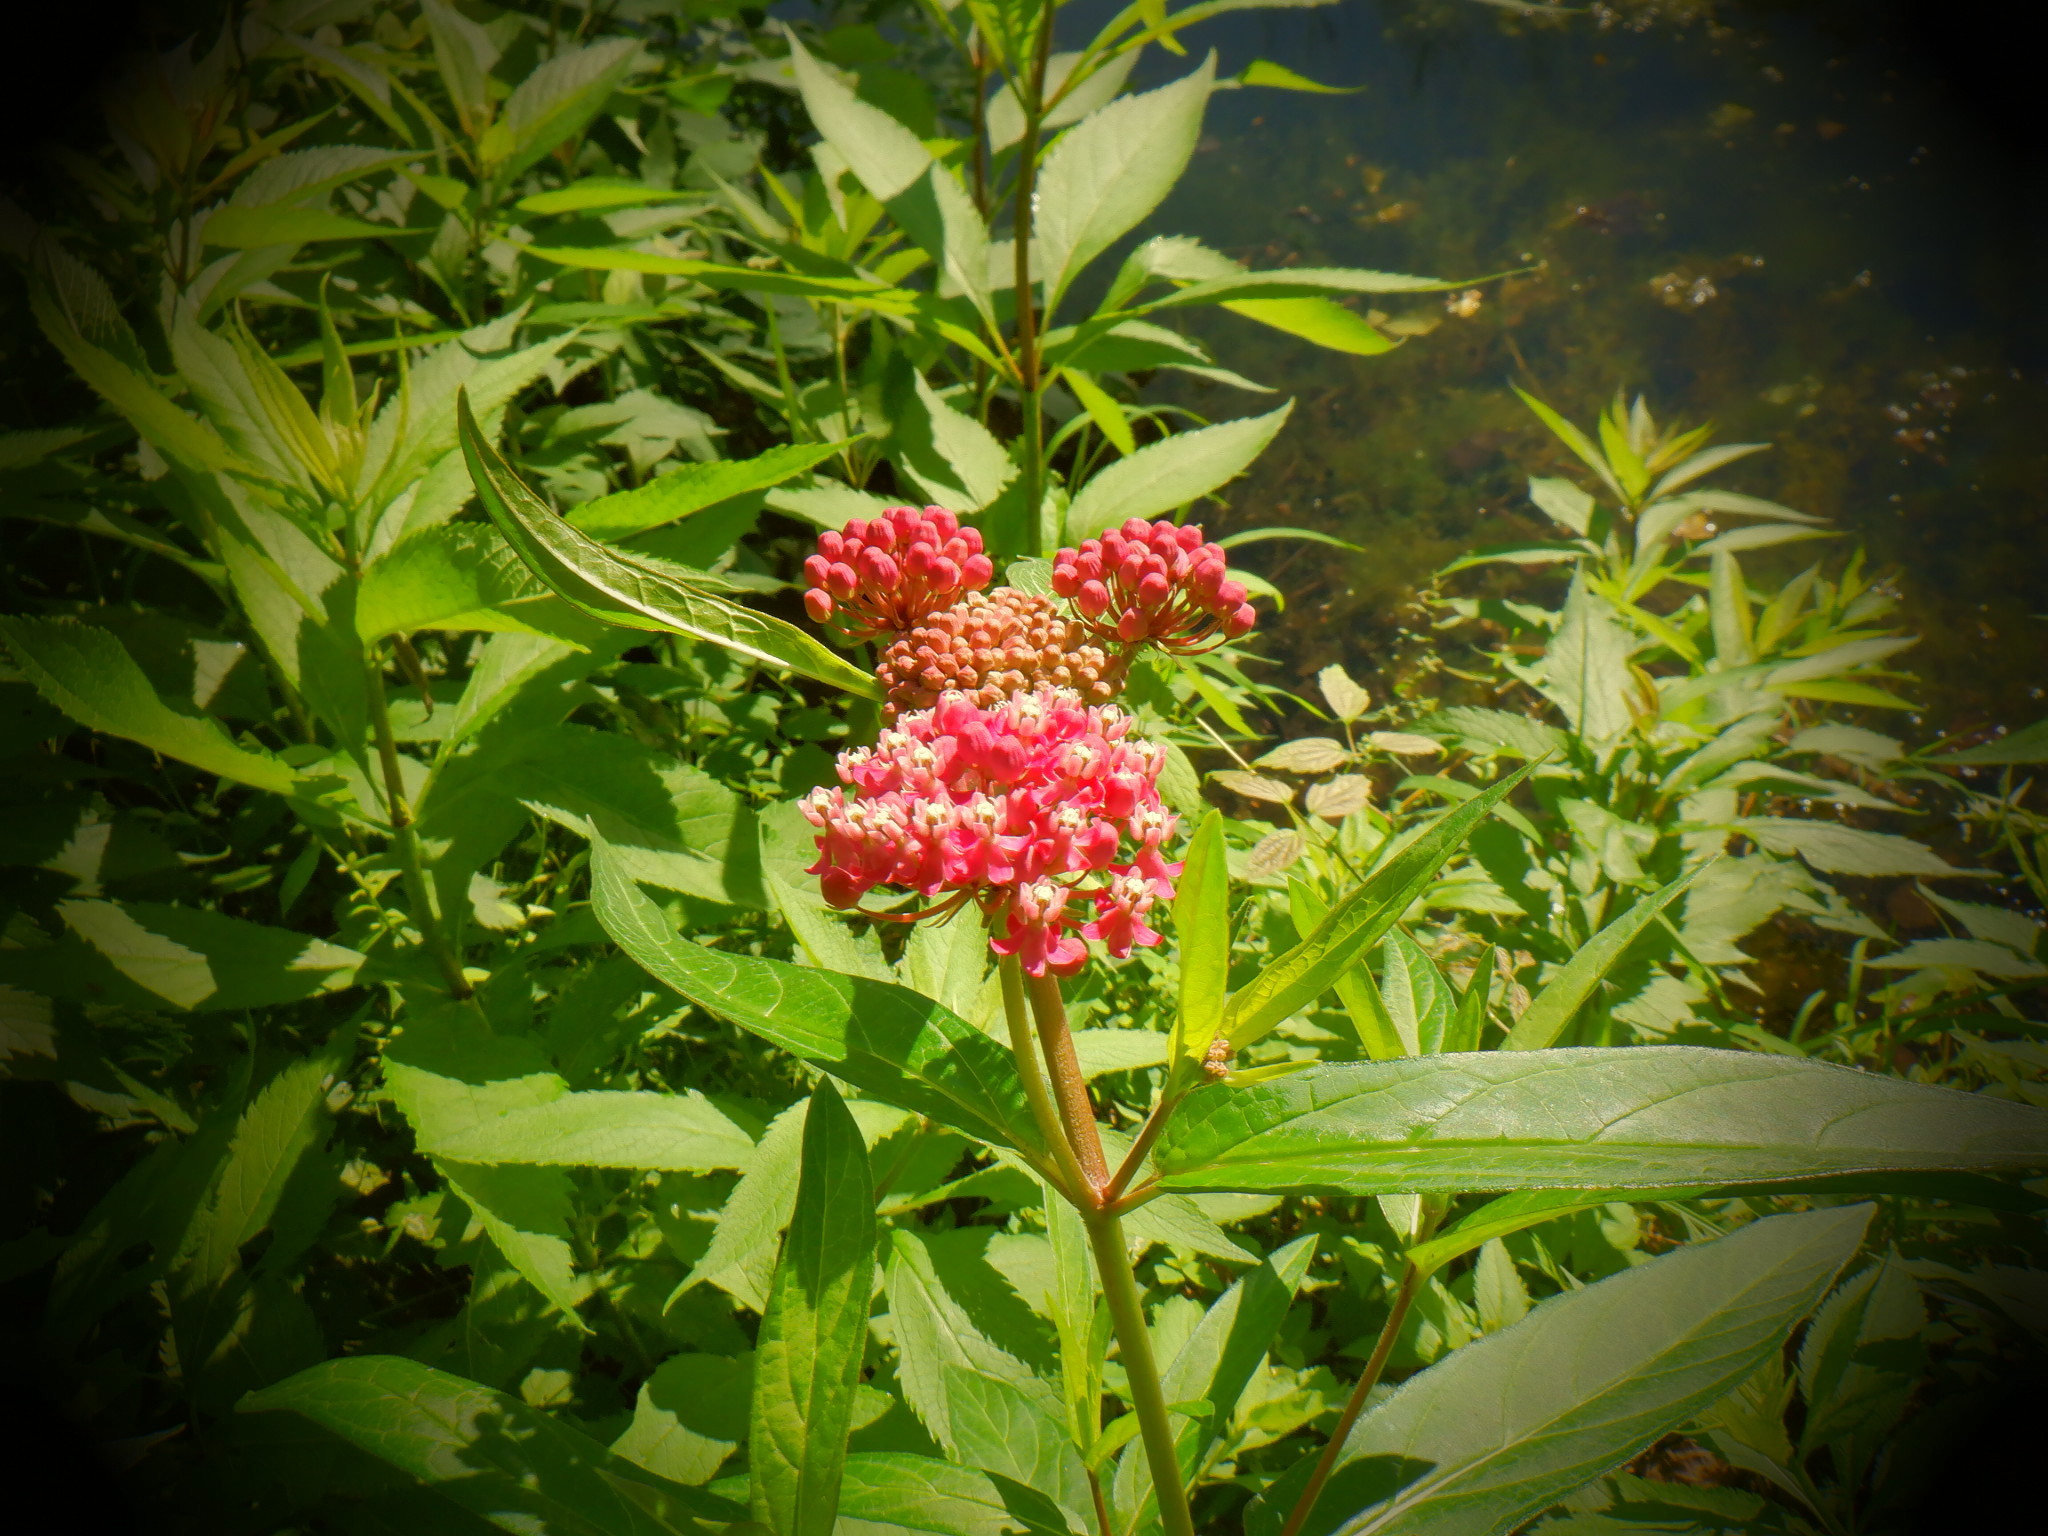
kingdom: Plantae
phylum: Tracheophyta
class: Magnoliopsida
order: Gentianales
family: Apocynaceae
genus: Asclepias
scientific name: Asclepias incarnata
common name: Swamp milkweed
